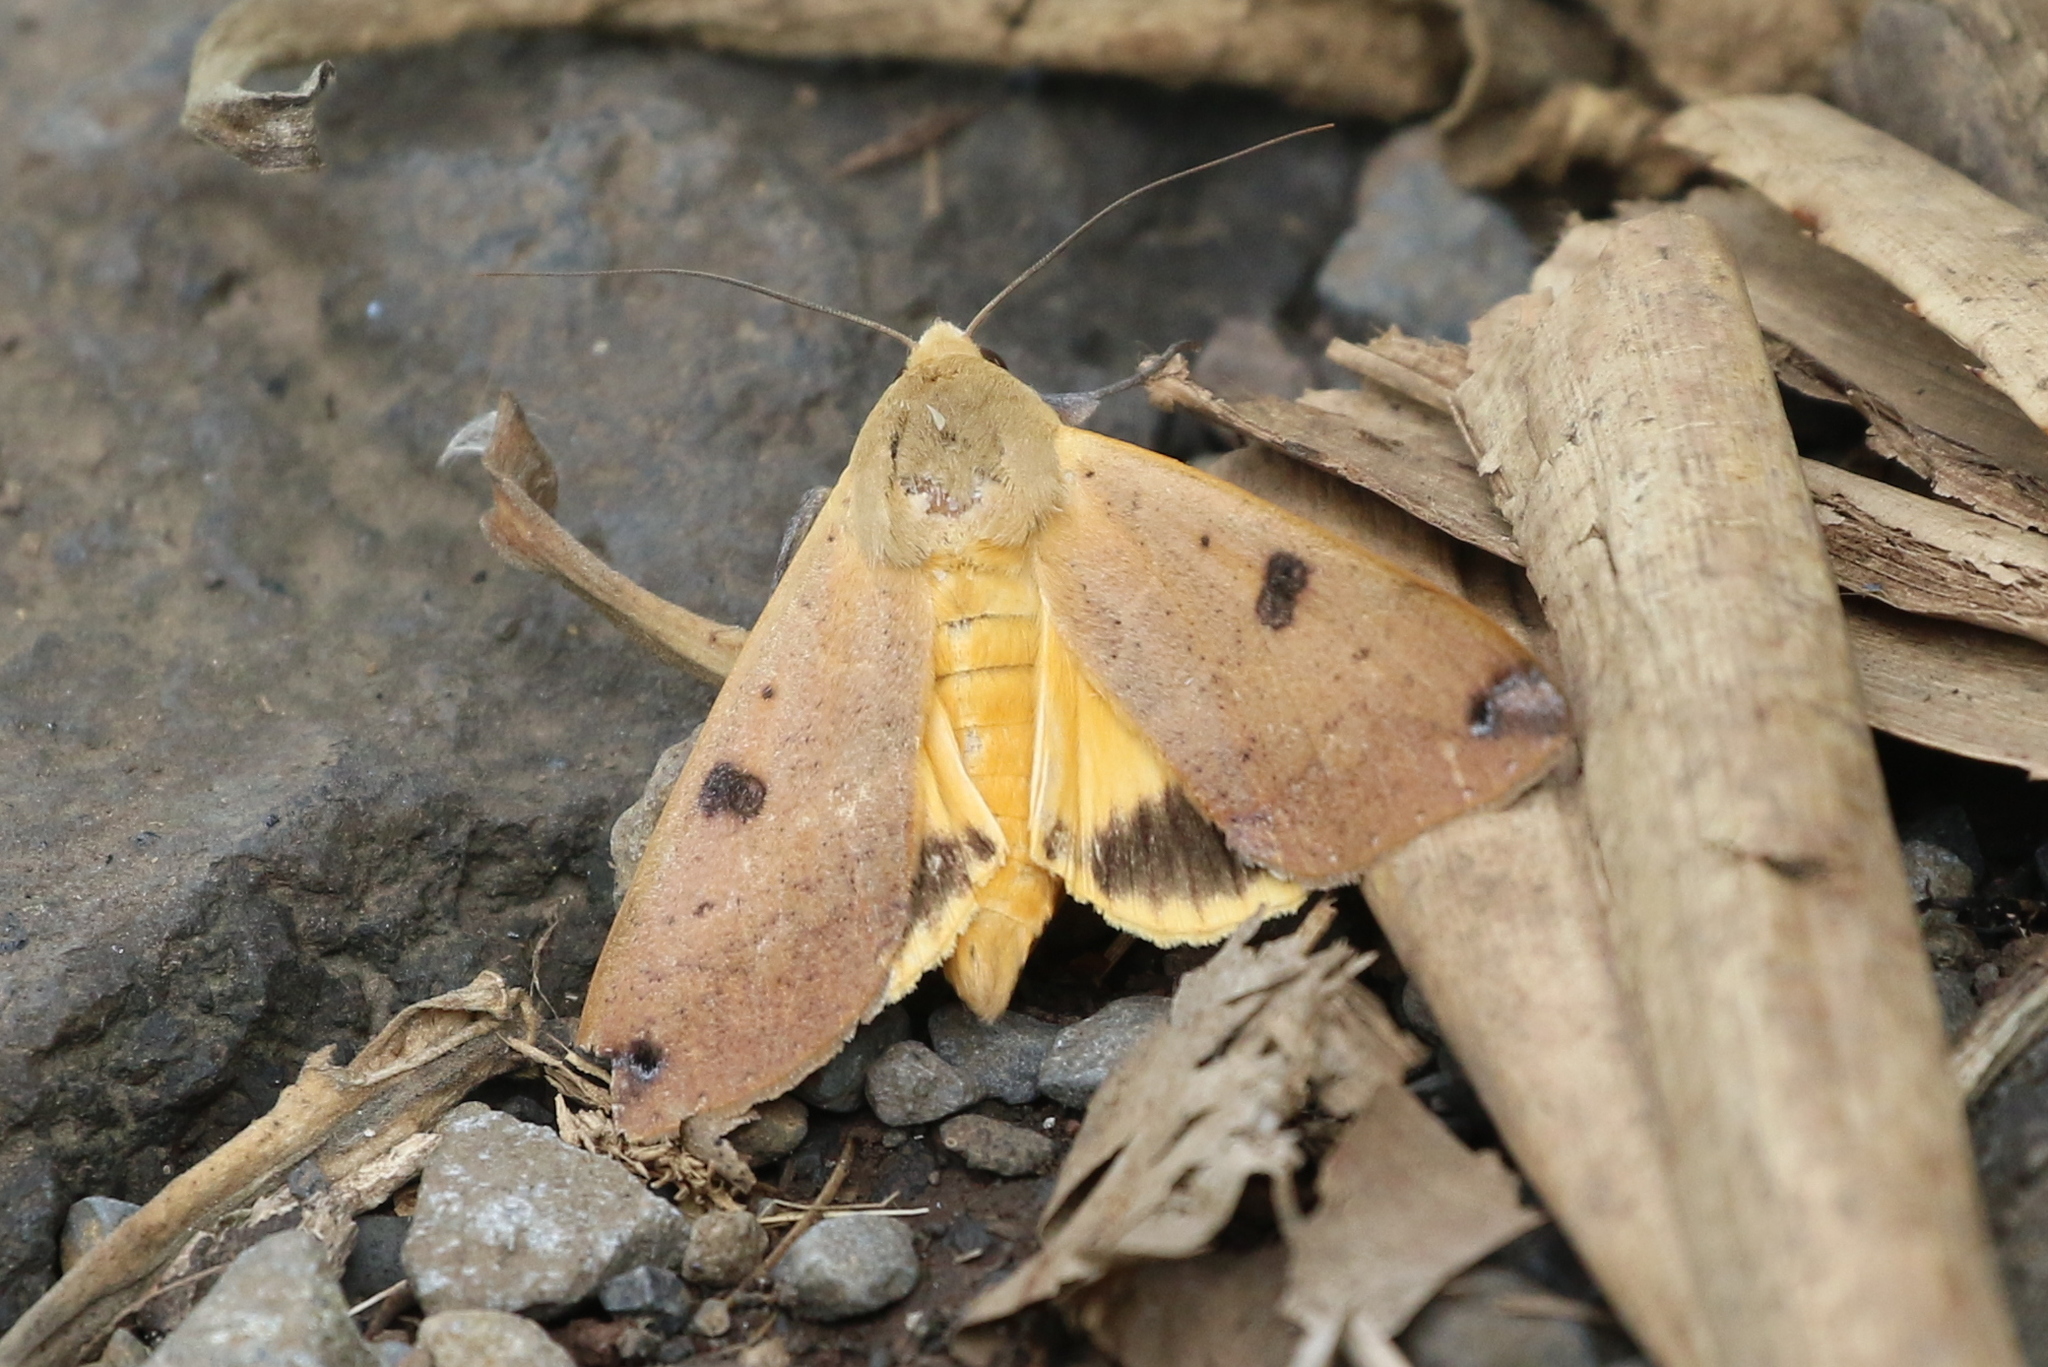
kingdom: Animalia
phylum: Arthropoda
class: Insecta
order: Lepidoptera
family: Erebidae
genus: Ophiusa
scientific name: Ophiusa disjungens
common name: Moth
